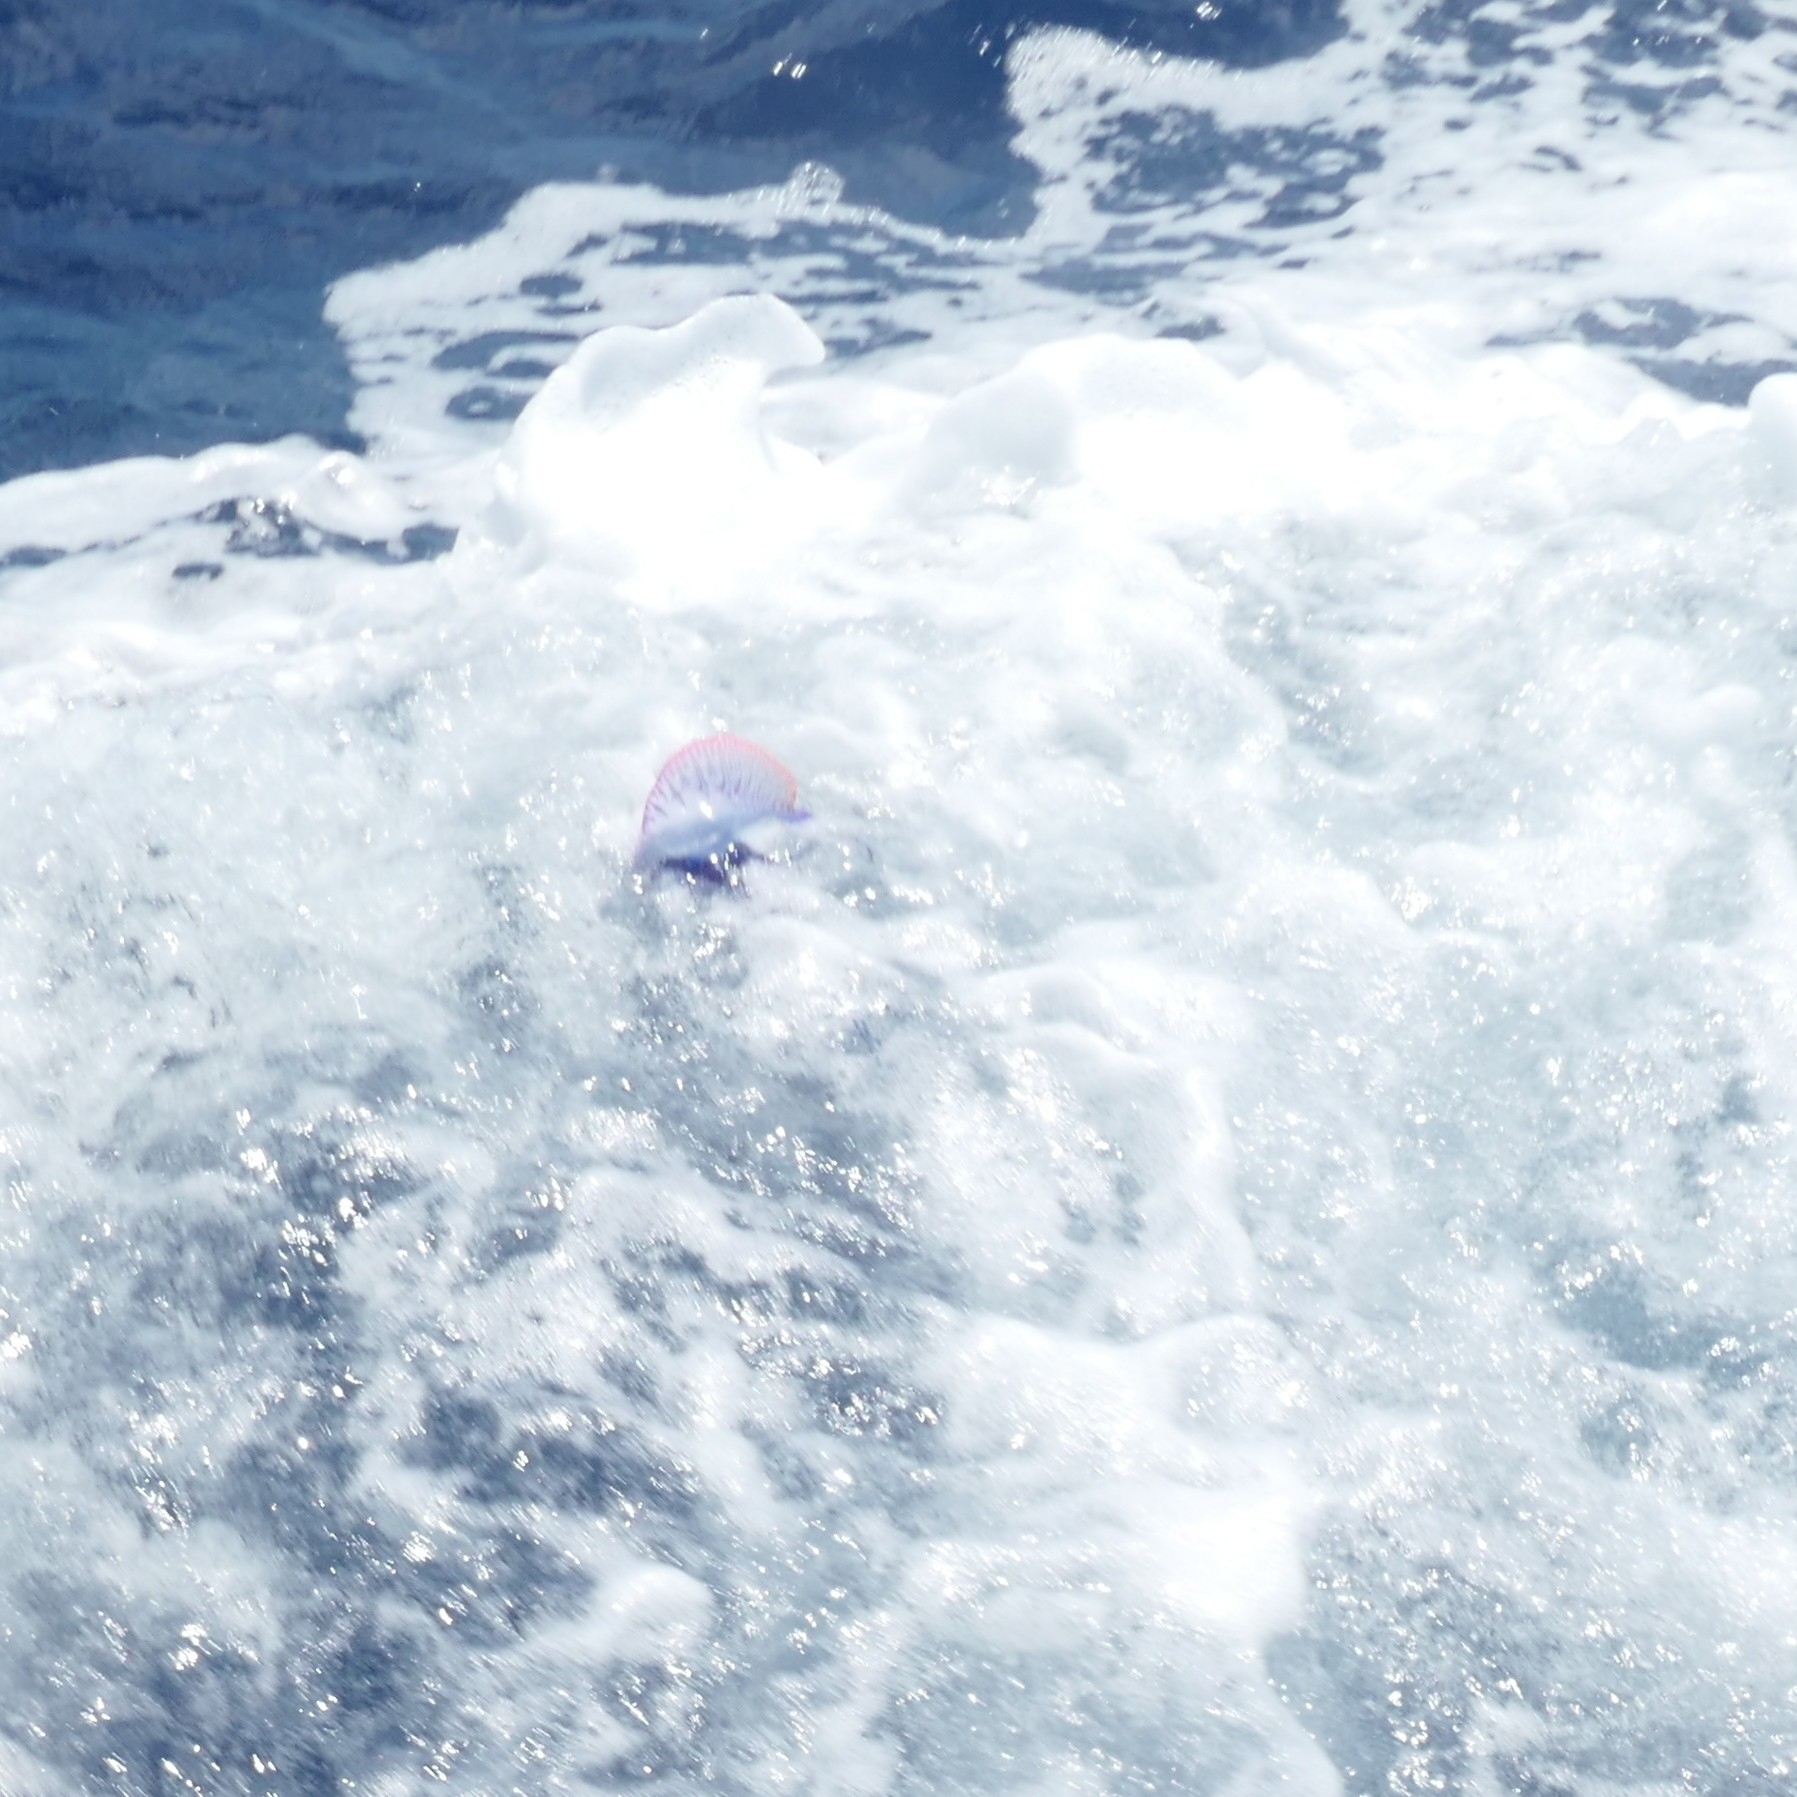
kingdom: Animalia
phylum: Cnidaria
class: Hydrozoa
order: Siphonophorae
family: Physaliidae
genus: Physalia
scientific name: Physalia physalis
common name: Portuguese man-of-war
